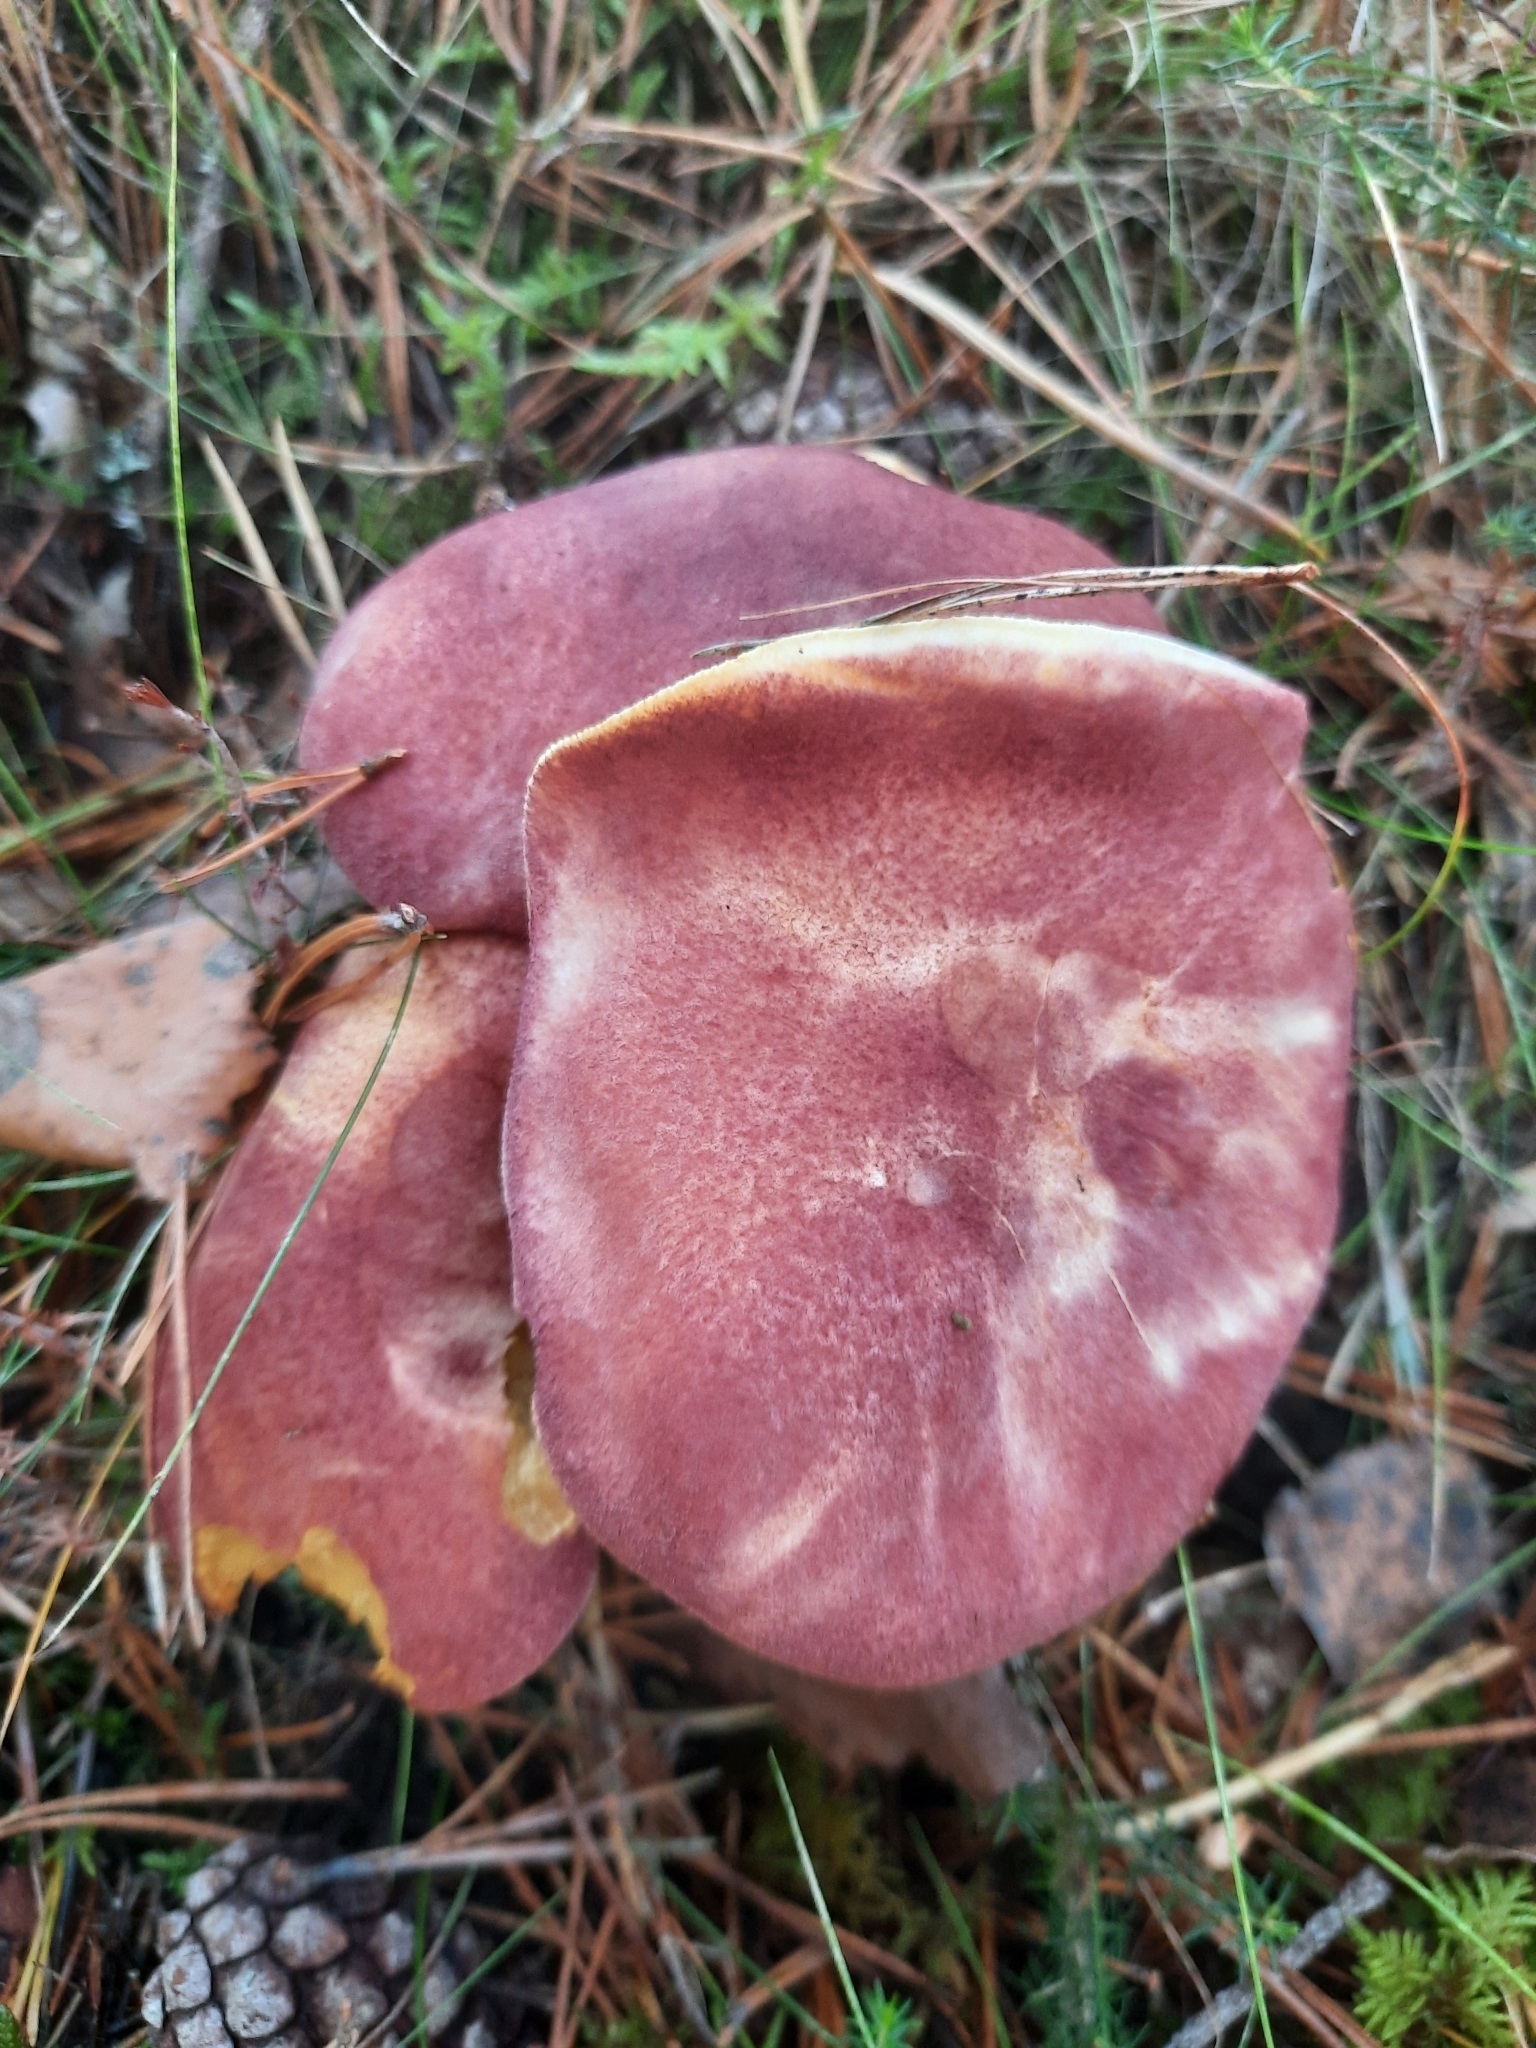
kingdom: Fungi
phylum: Basidiomycota
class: Agaricomycetes
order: Agaricales
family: Tricholomataceae
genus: Tricholomopsis
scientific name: Tricholomopsis rutilans
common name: Plums and custard
